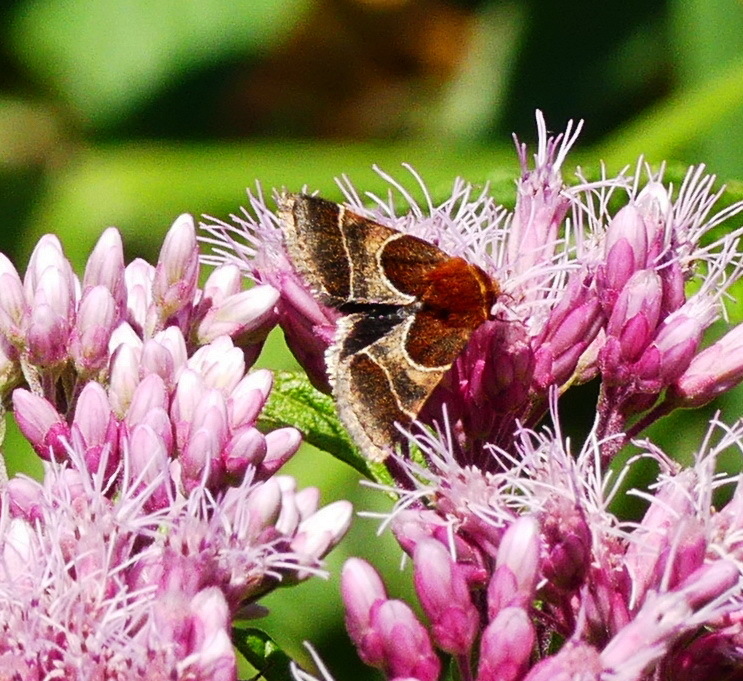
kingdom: Animalia
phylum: Arthropoda
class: Insecta
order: Lepidoptera
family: Noctuidae
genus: Schinia
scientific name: Schinia arcigera
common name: Arcigera flower moth
